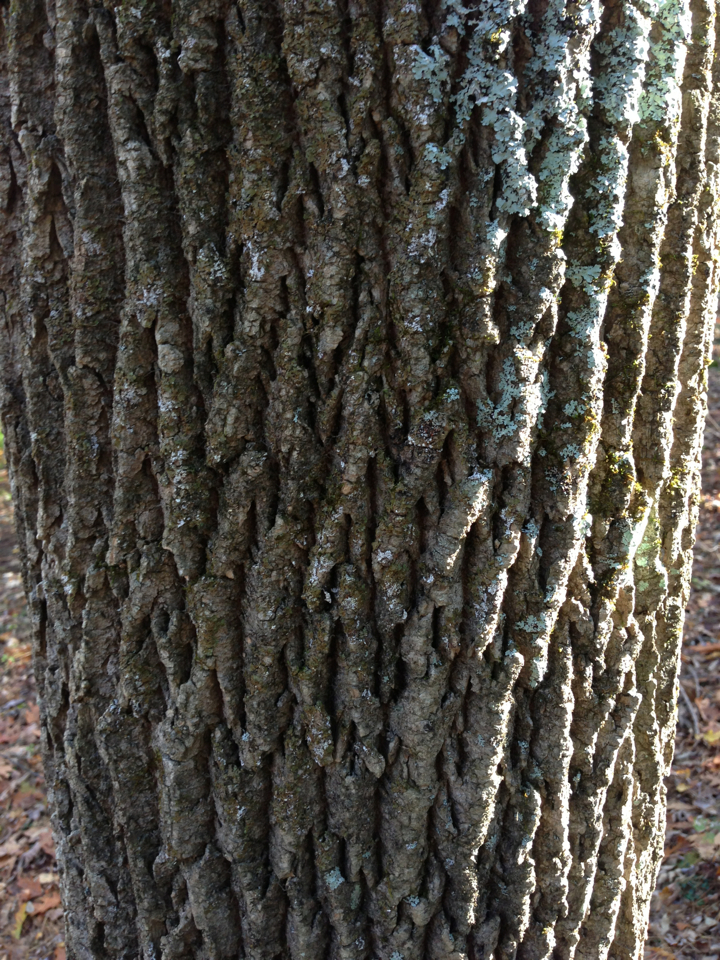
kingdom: Plantae
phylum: Tracheophyta
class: Magnoliopsida
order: Lamiales
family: Oleaceae
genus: Fraxinus
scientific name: Fraxinus americana
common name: White ash
